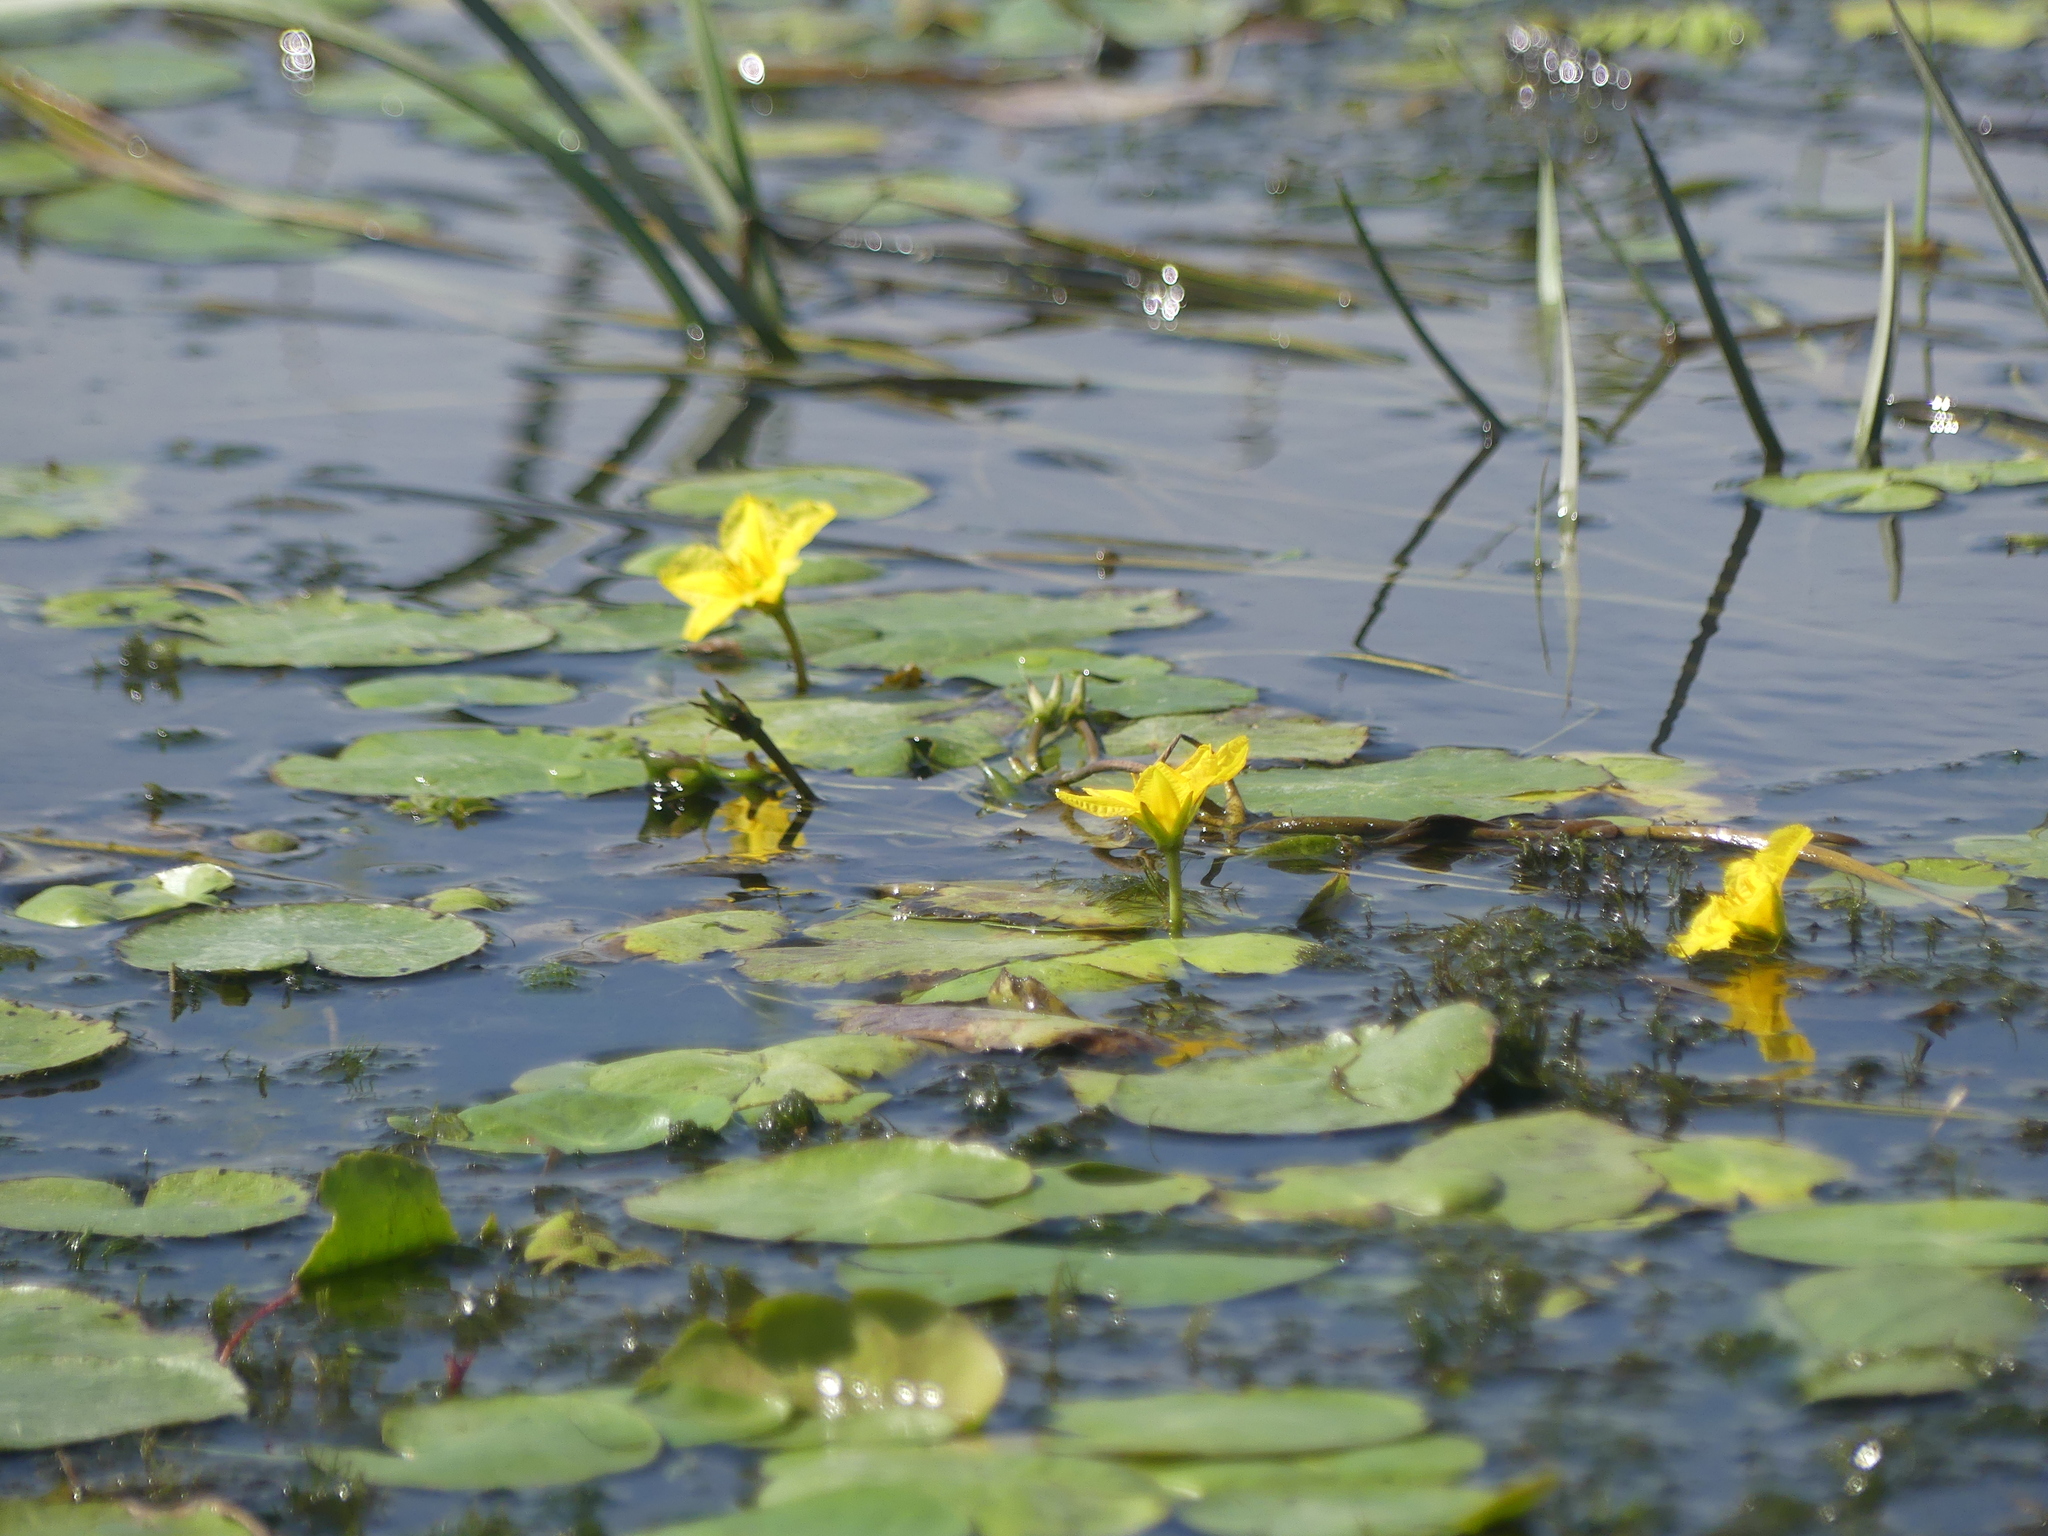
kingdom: Plantae
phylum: Tracheophyta
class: Magnoliopsida
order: Asterales
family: Menyanthaceae
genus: Nymphoides
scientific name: Nymphoides peltata
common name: Fringed water-lily
